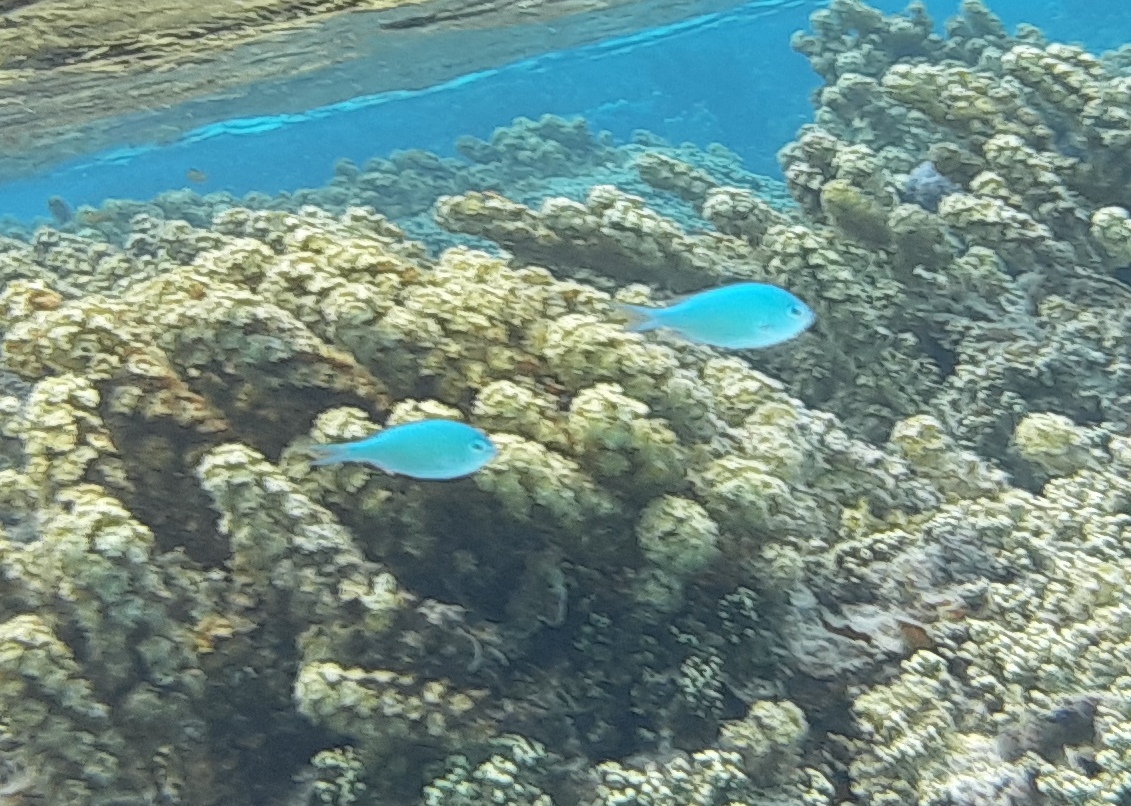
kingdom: Animalia
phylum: Chordata
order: Perciformes
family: Pomacentridae
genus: Chromis
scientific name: Chromis viridis
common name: Blue-green chromis
